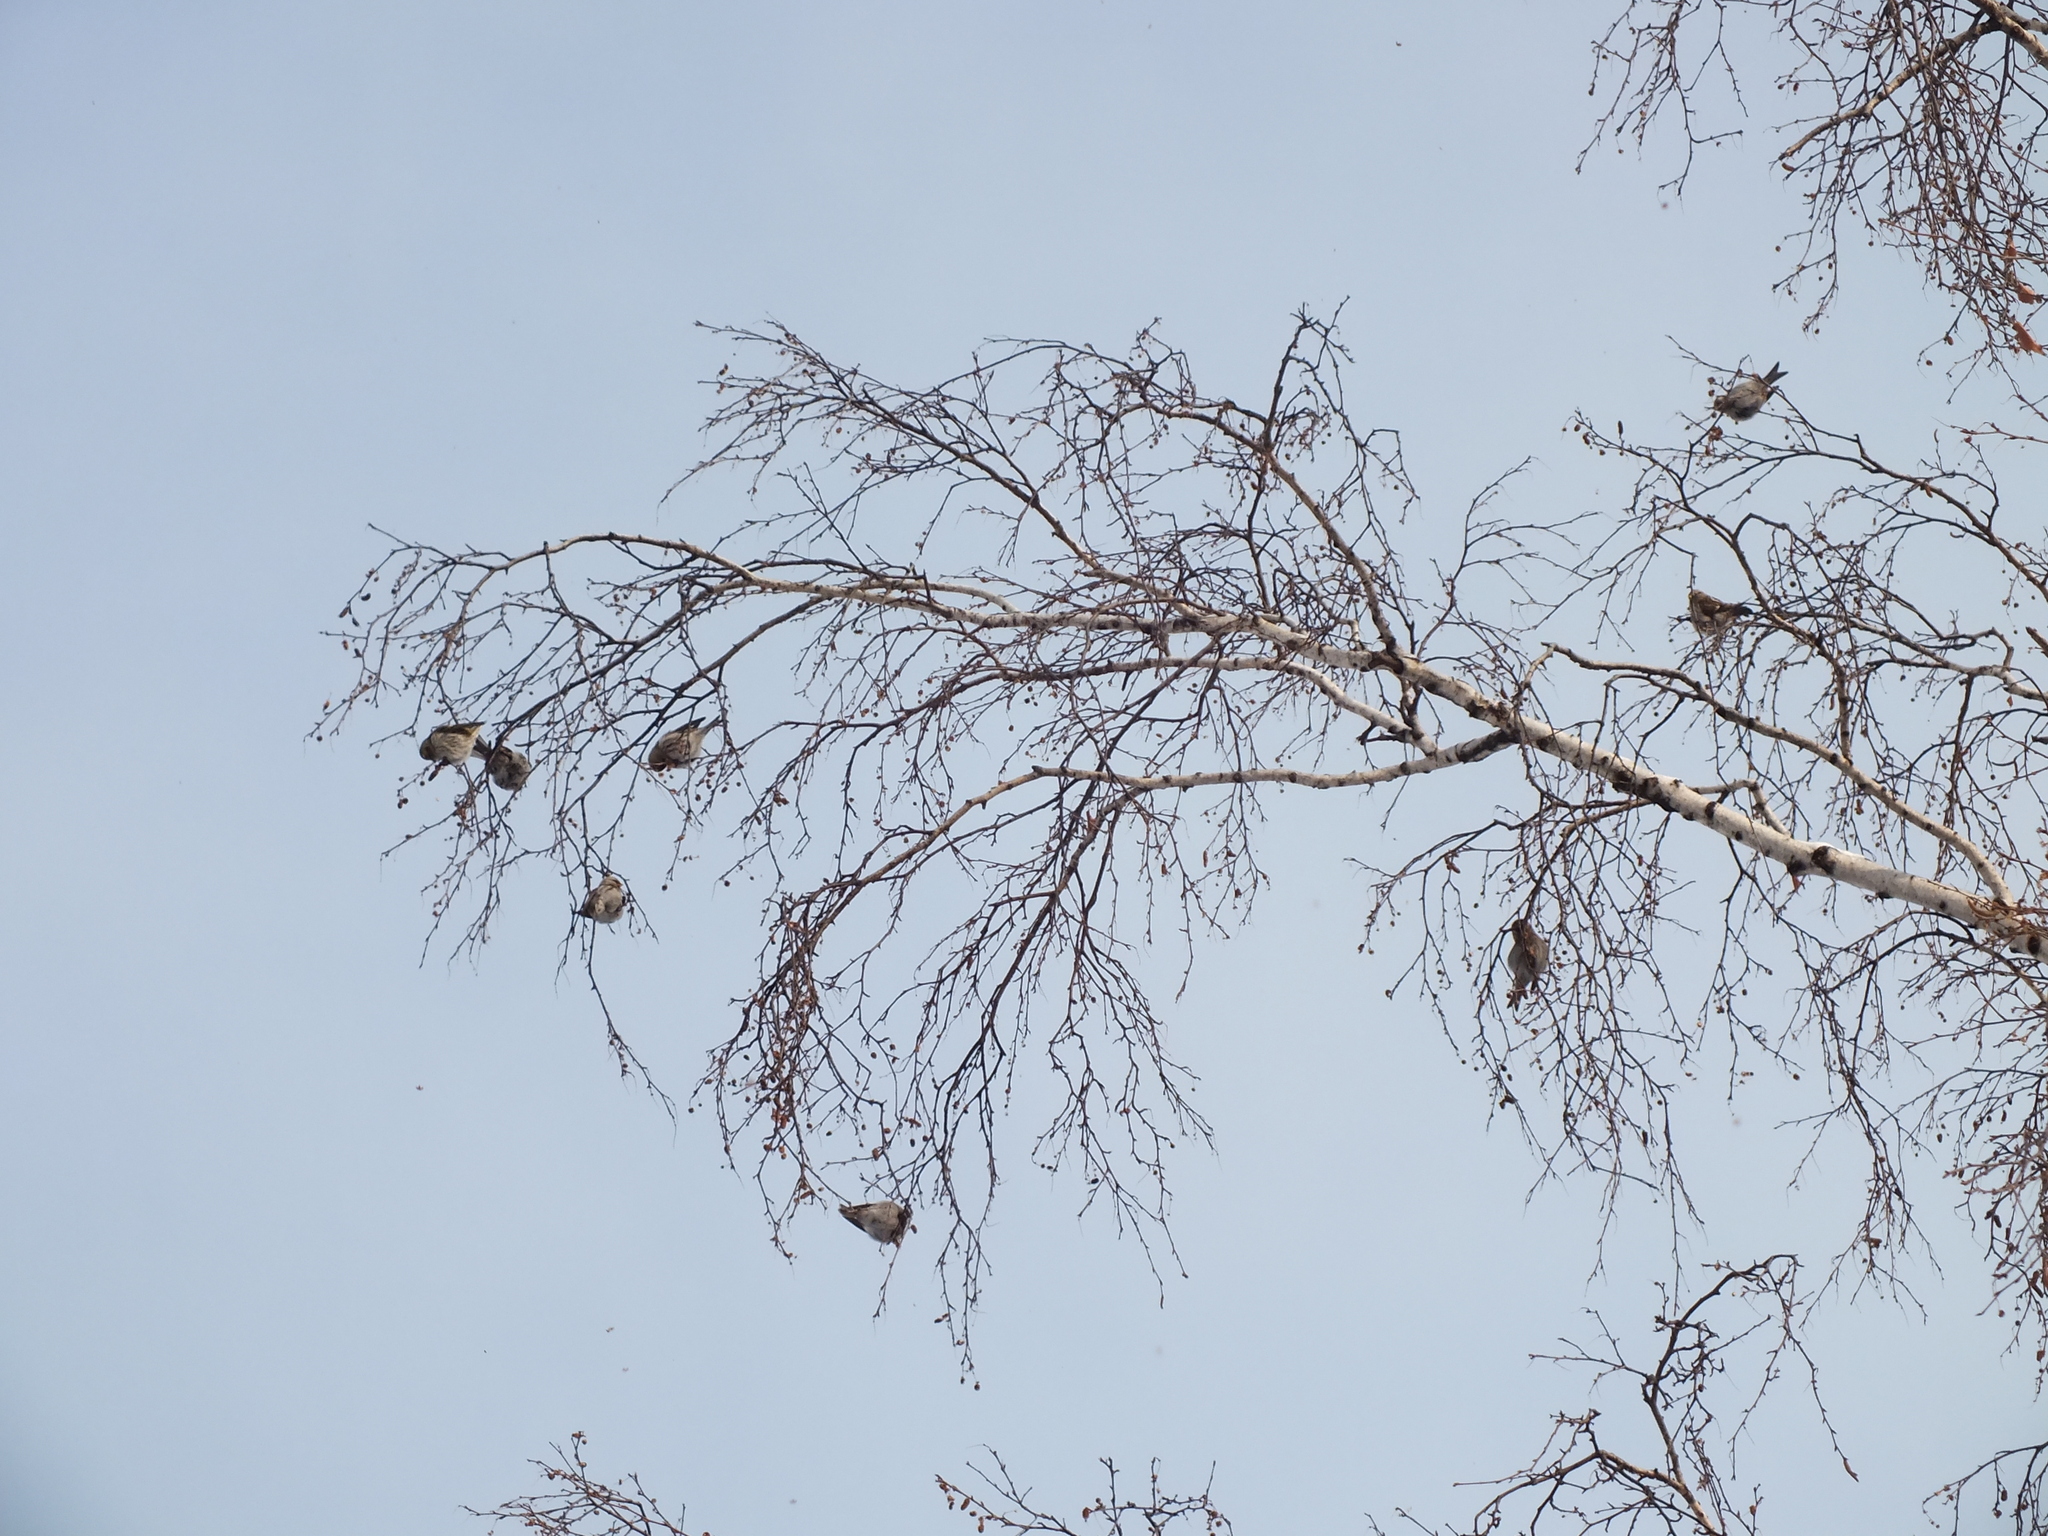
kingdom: Animalia
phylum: Chordata
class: Aves
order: Passeriformes
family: Fringillidae
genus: Acanthis
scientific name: Acanthis flammea
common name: Common redpoll
